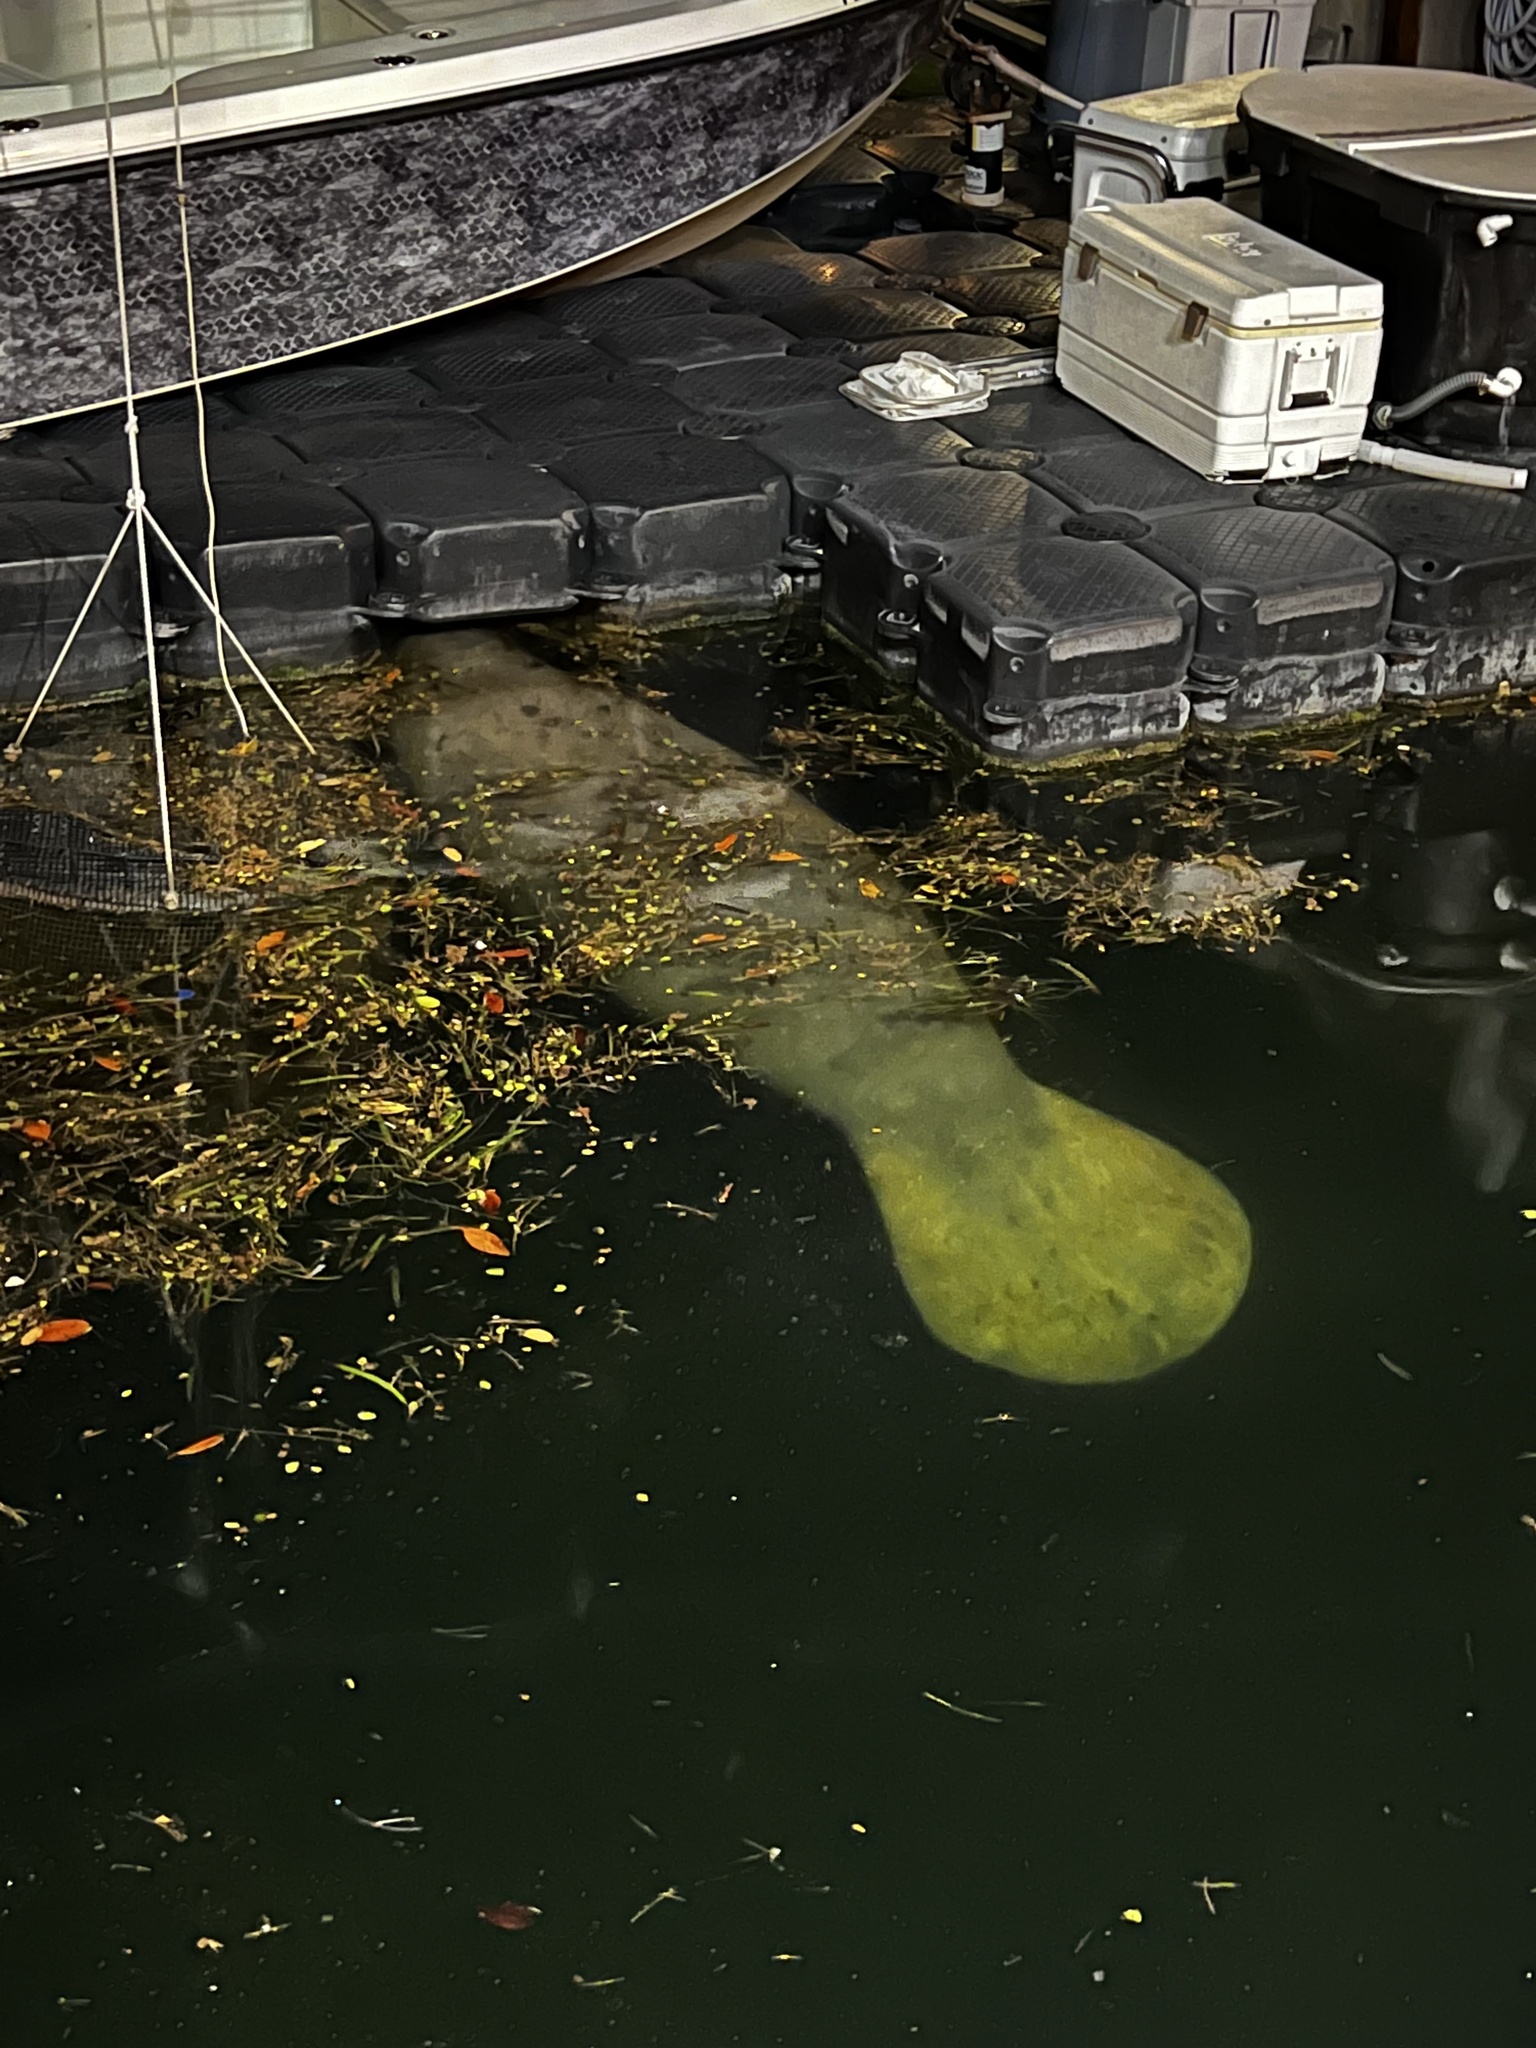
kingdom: Animalia
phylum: Chordata
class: Mammalia
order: Sirenia
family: Trichechidae
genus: Trichechus
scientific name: Trichechus manatus
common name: West indian manatee
